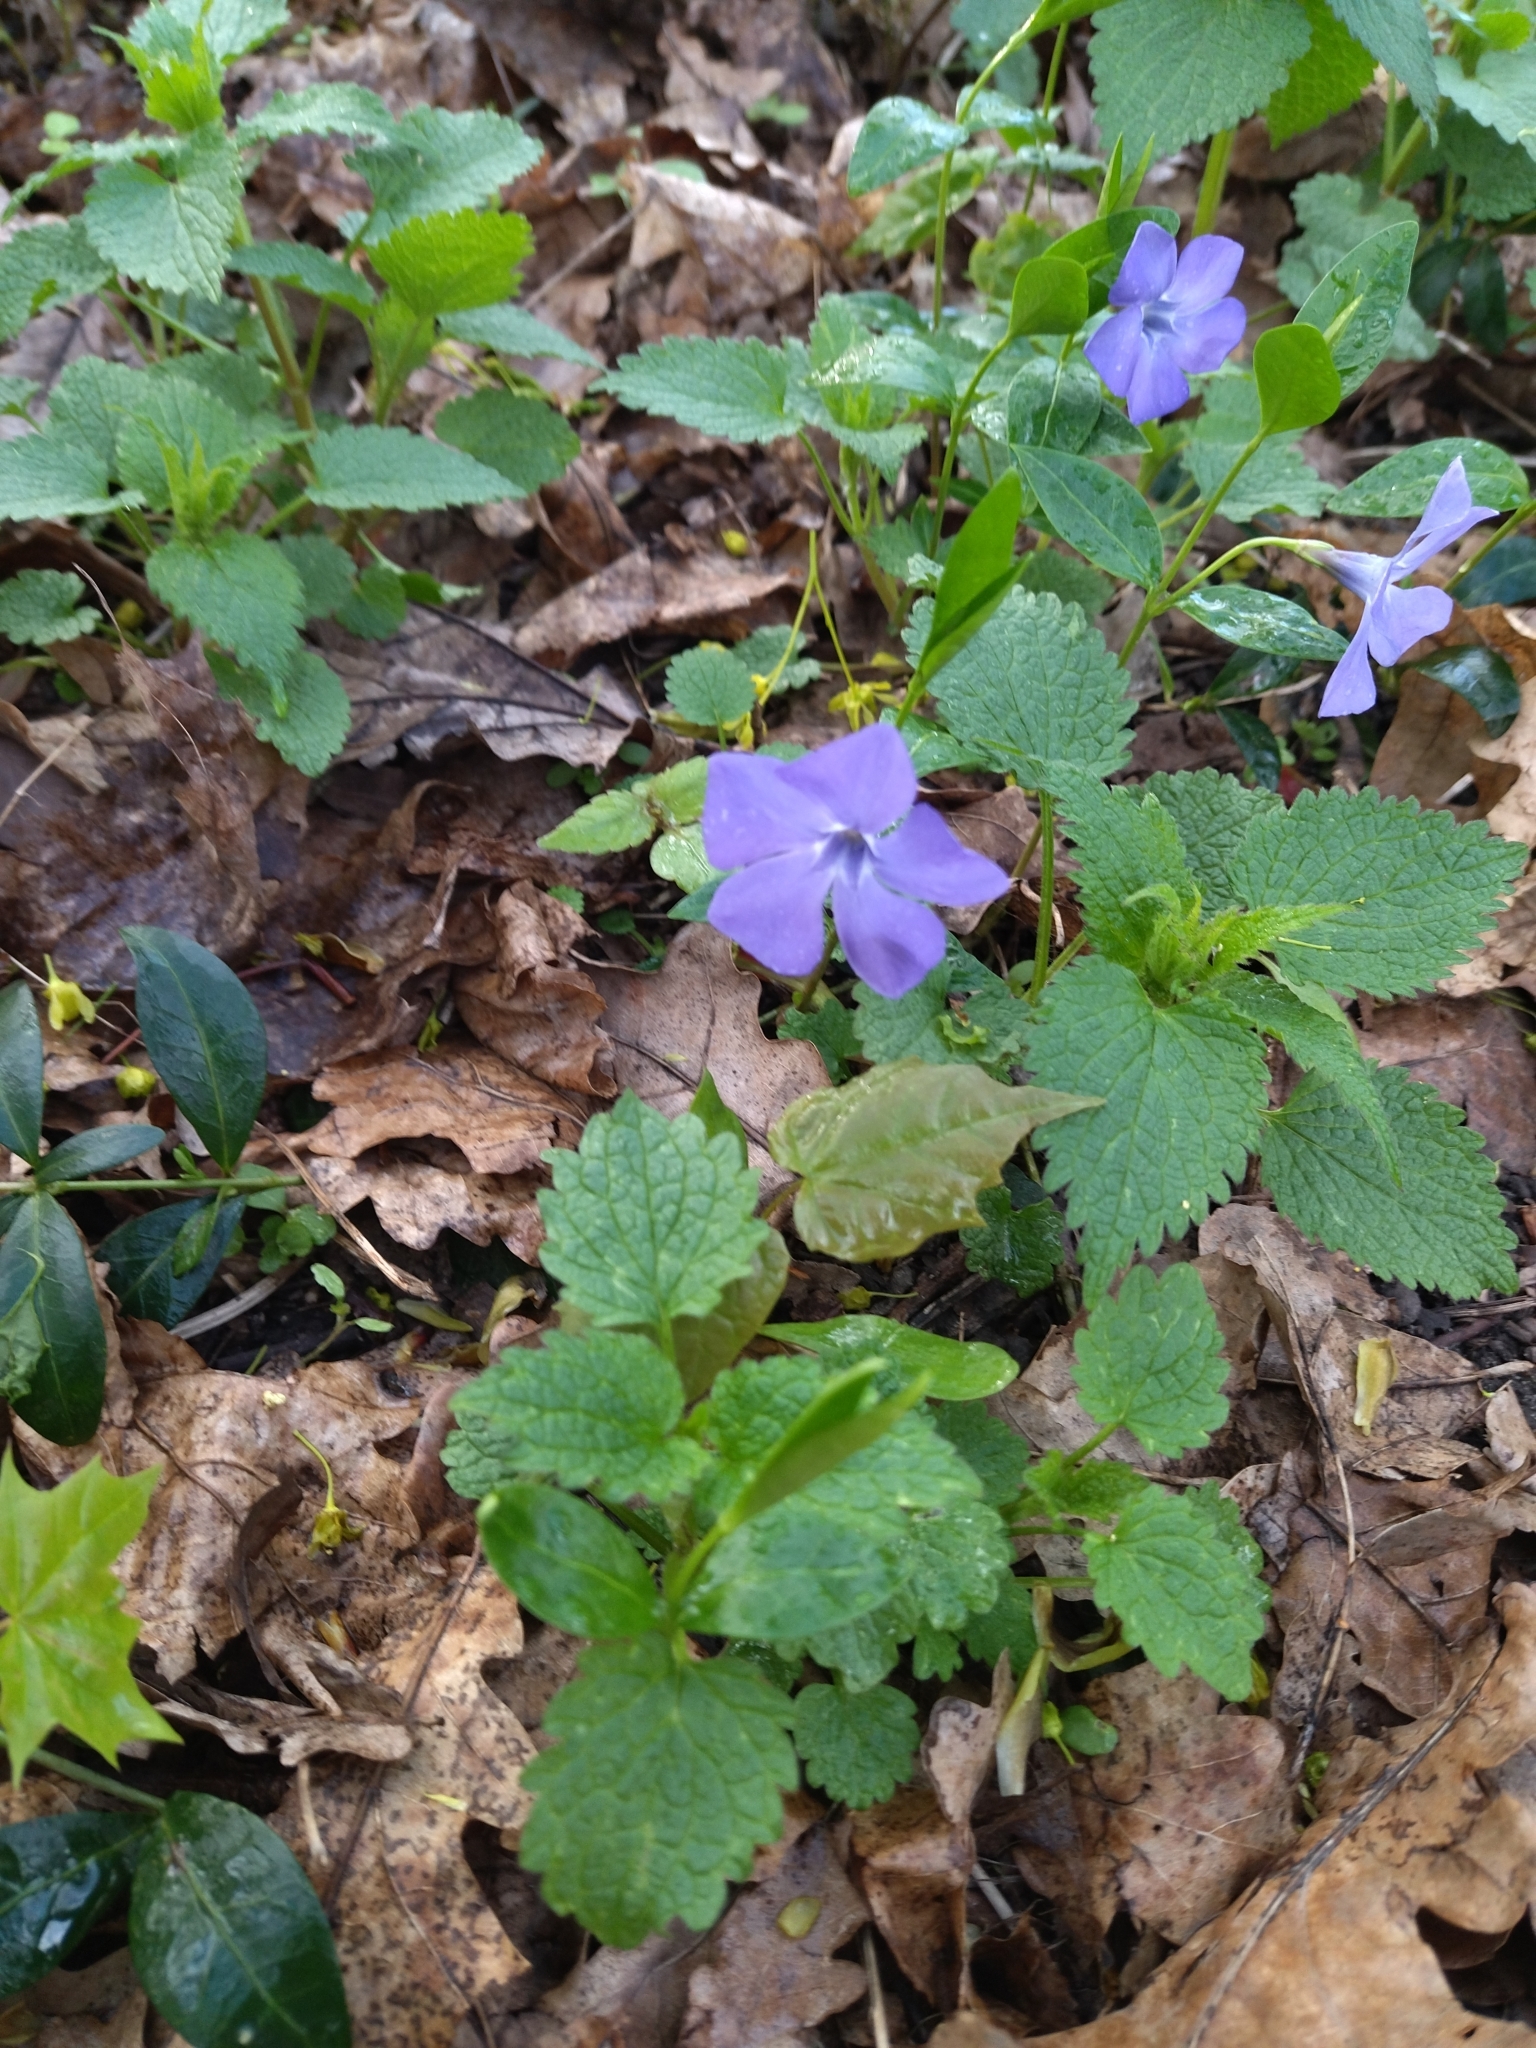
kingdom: Plantae
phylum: Tracheophyta
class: Magnoliopsida
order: Gentianales
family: Apocynaceae
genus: Vinca
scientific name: Vinca minor
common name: Lesser periwinkle
